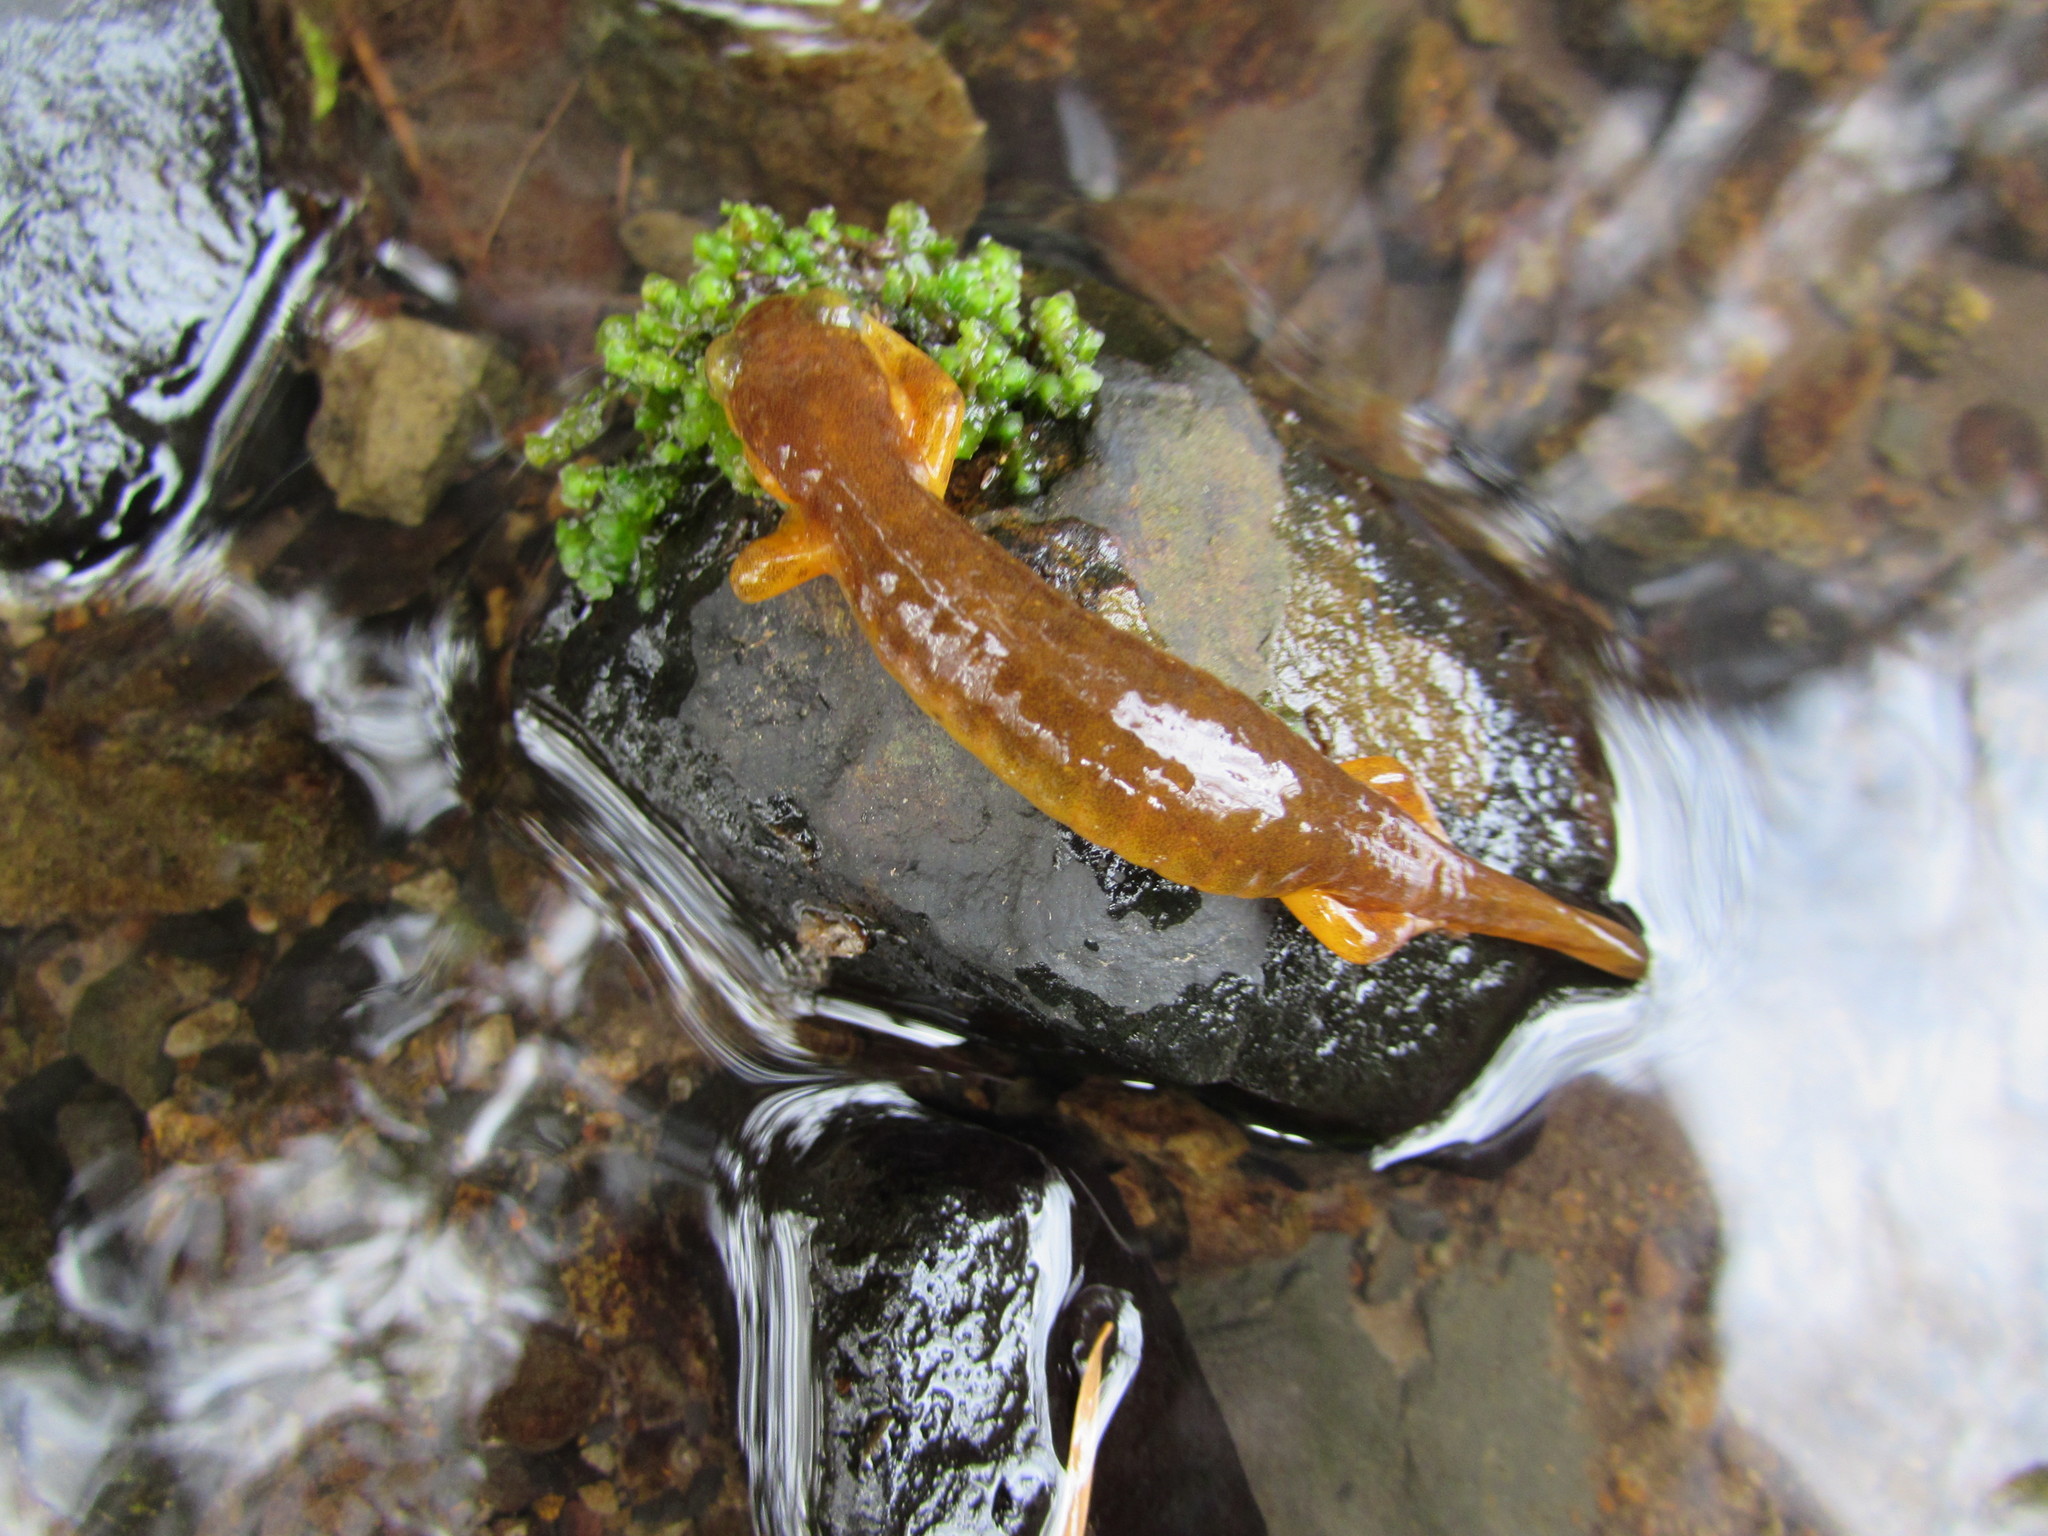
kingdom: Animalia
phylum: Chordata
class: Amphibia
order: Caudata
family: Rhyacotritonidae
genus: Rhyacotriton
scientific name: Rhyacotriton kezeri
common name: Columbia torrent salamander
